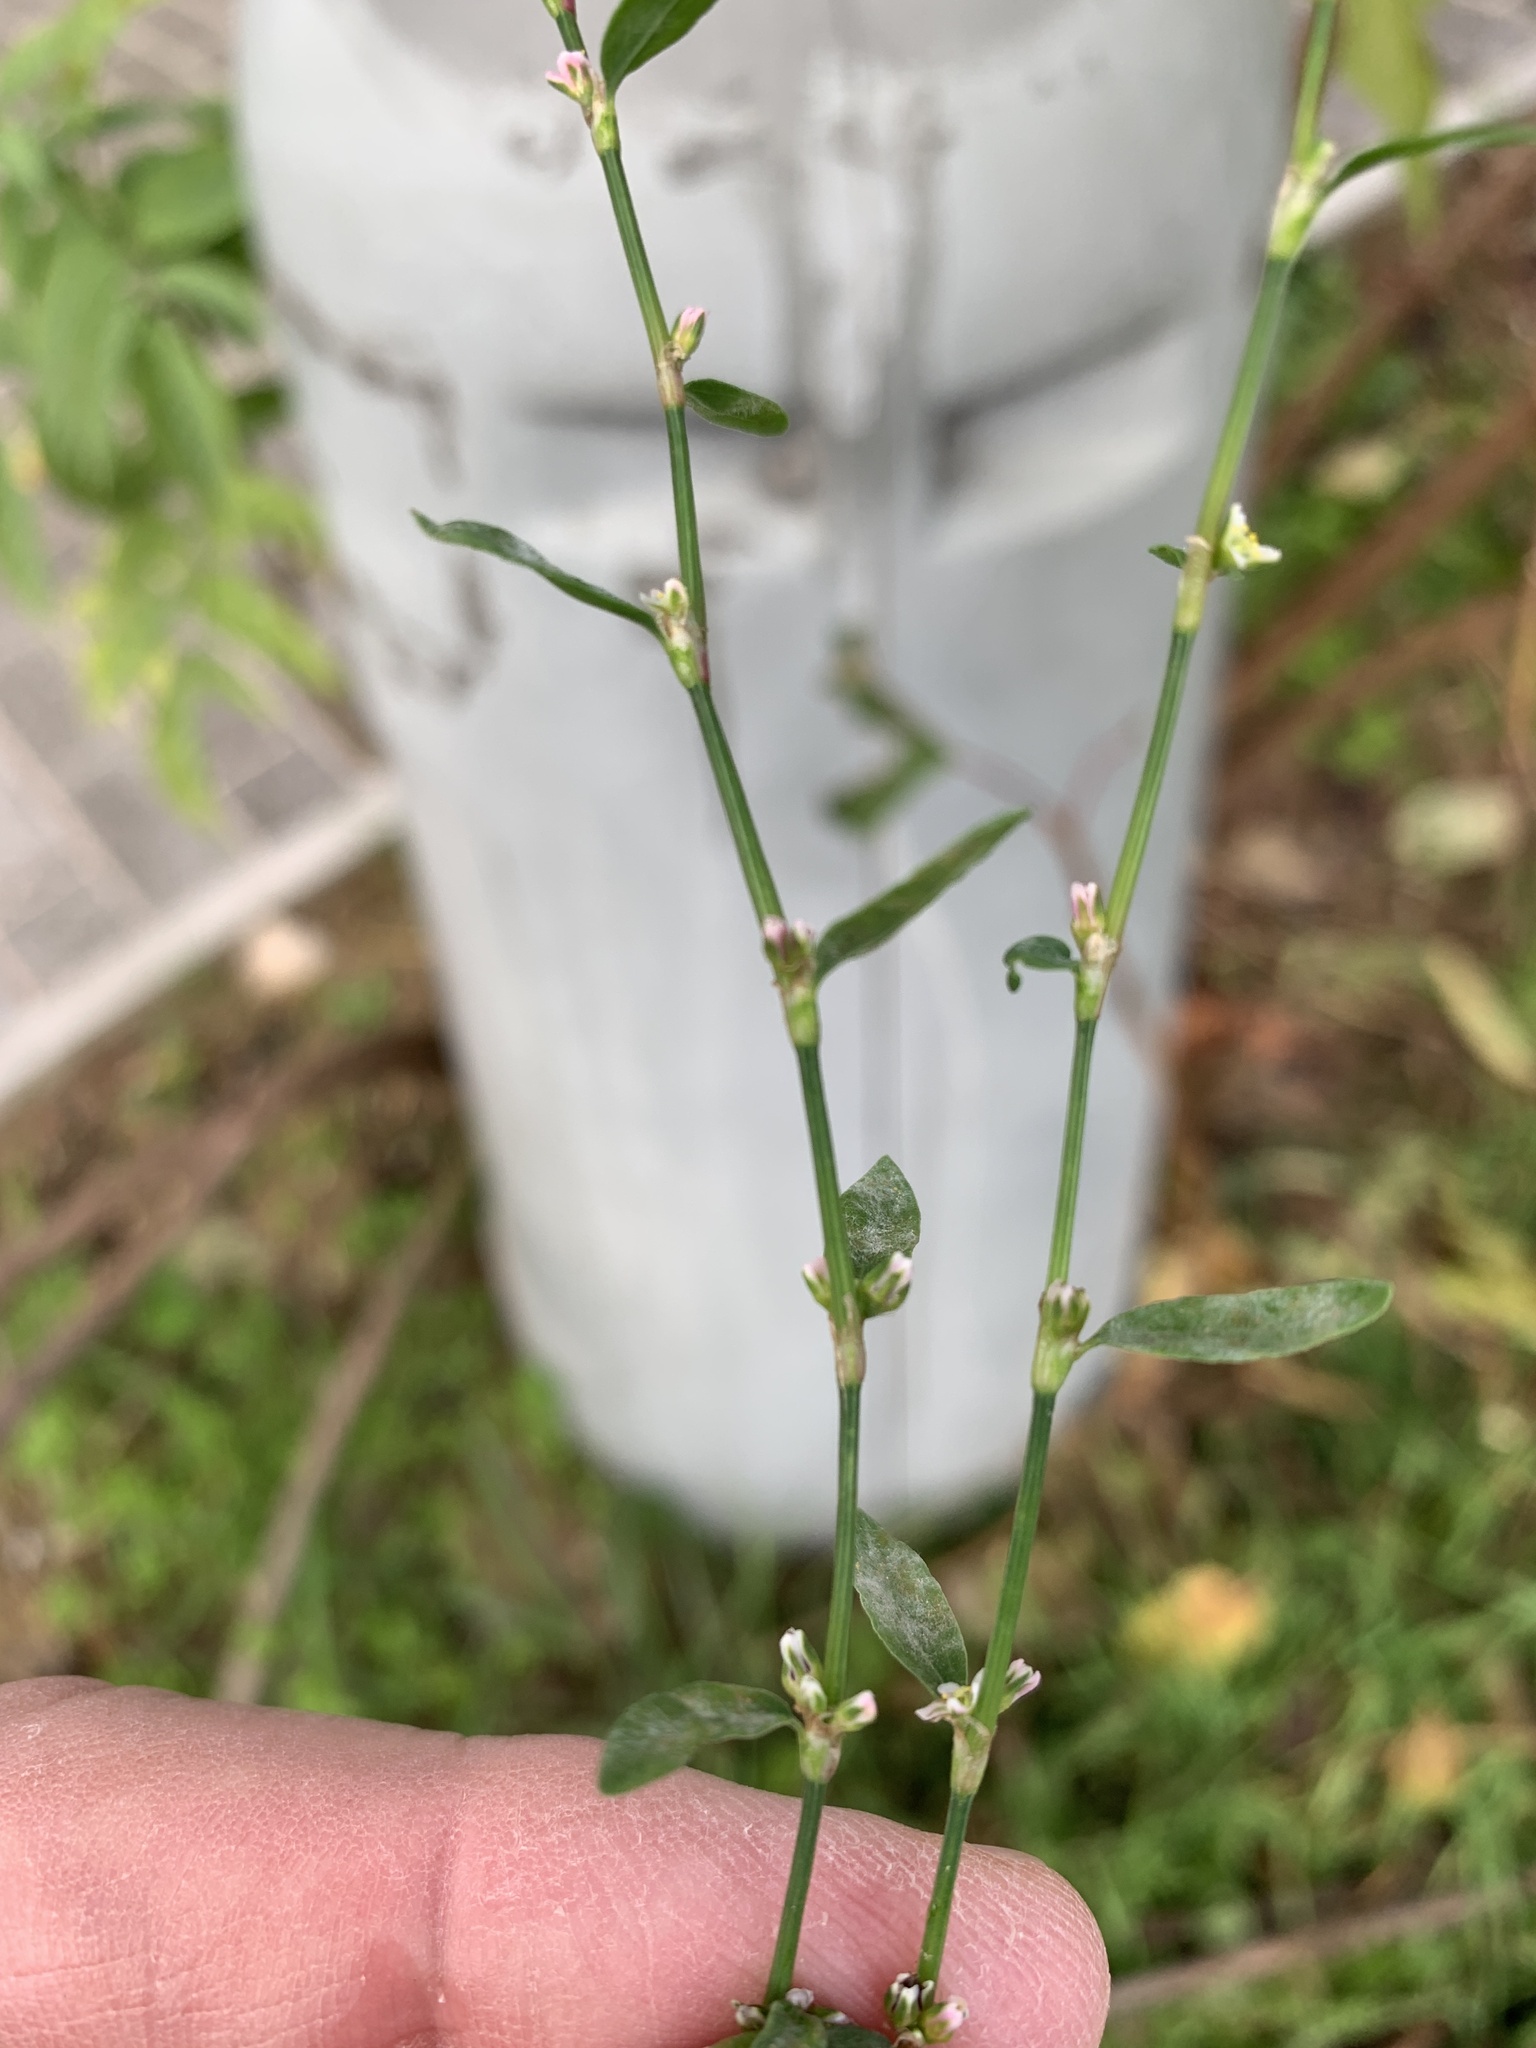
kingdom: Plantae
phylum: Tracheophyta
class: Magnoliopsida
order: Caryophyllales
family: Polygonaceae
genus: Polygonum
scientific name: Polygonum
